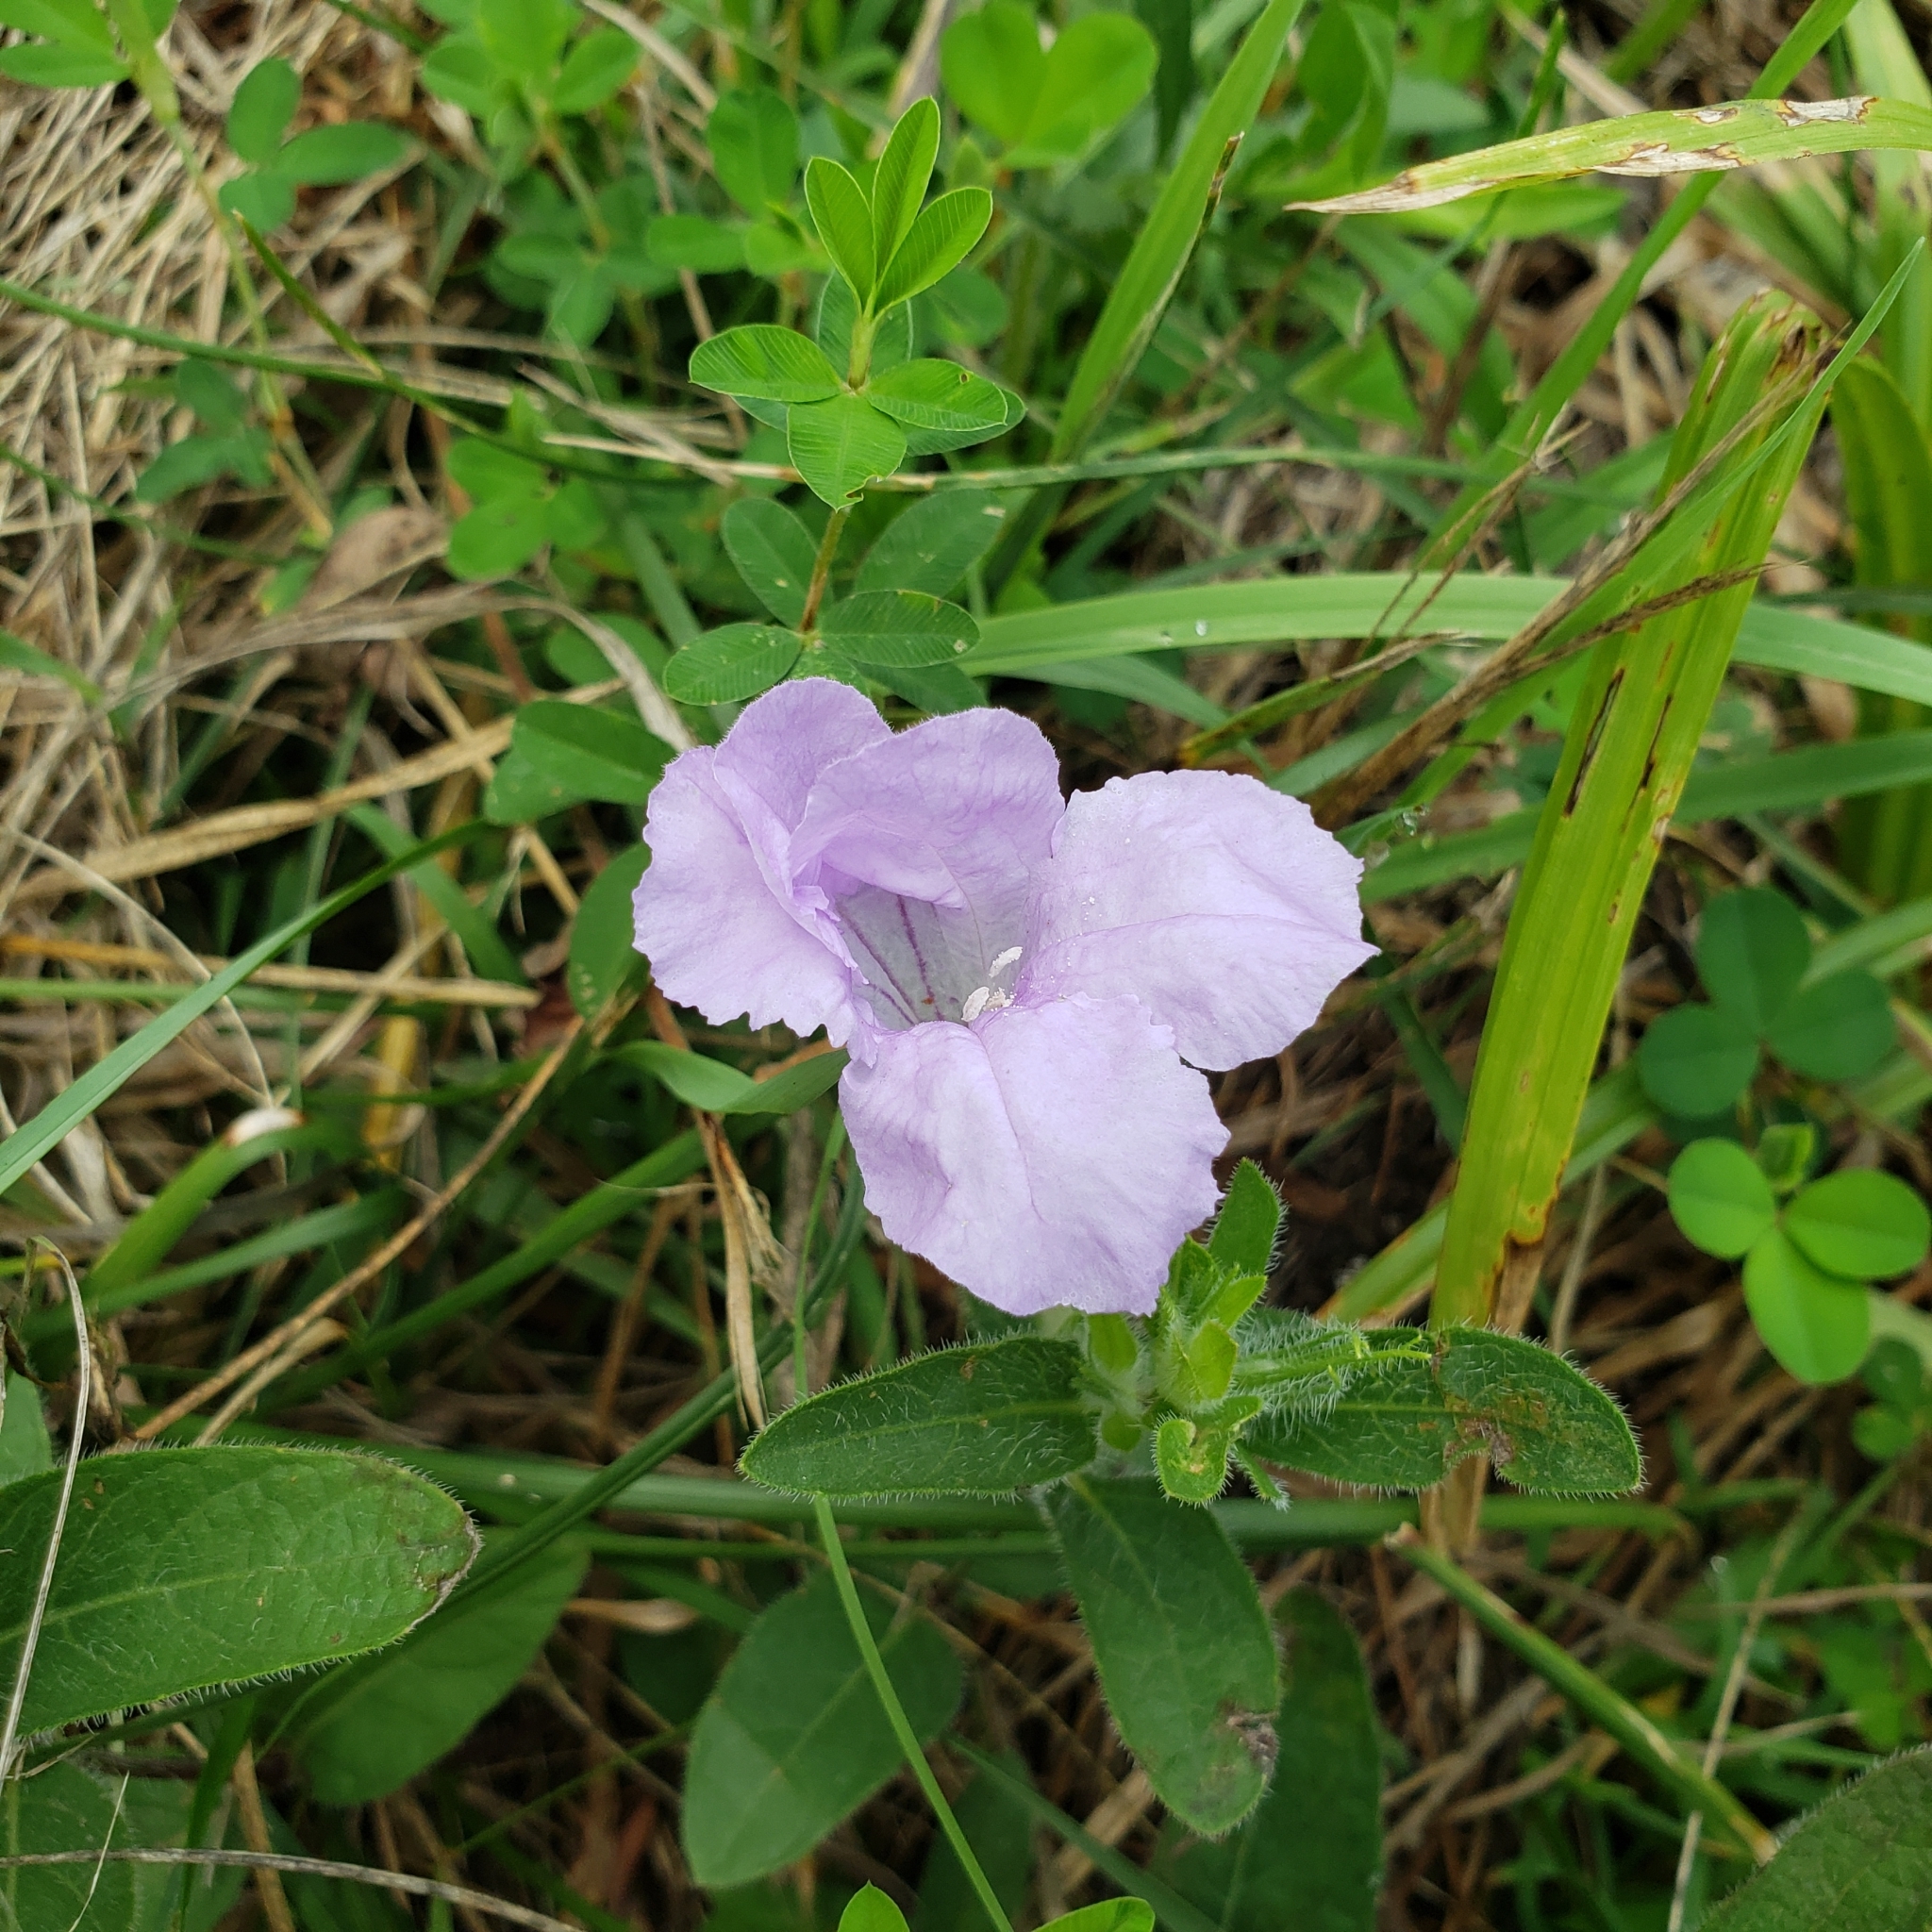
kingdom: Plantae
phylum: Tracheophyta
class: Magnoliopsida
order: Lamiales
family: Acanthaceae
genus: Ruellia
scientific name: Ruellia humilis
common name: Fringe-leaf ruellia
